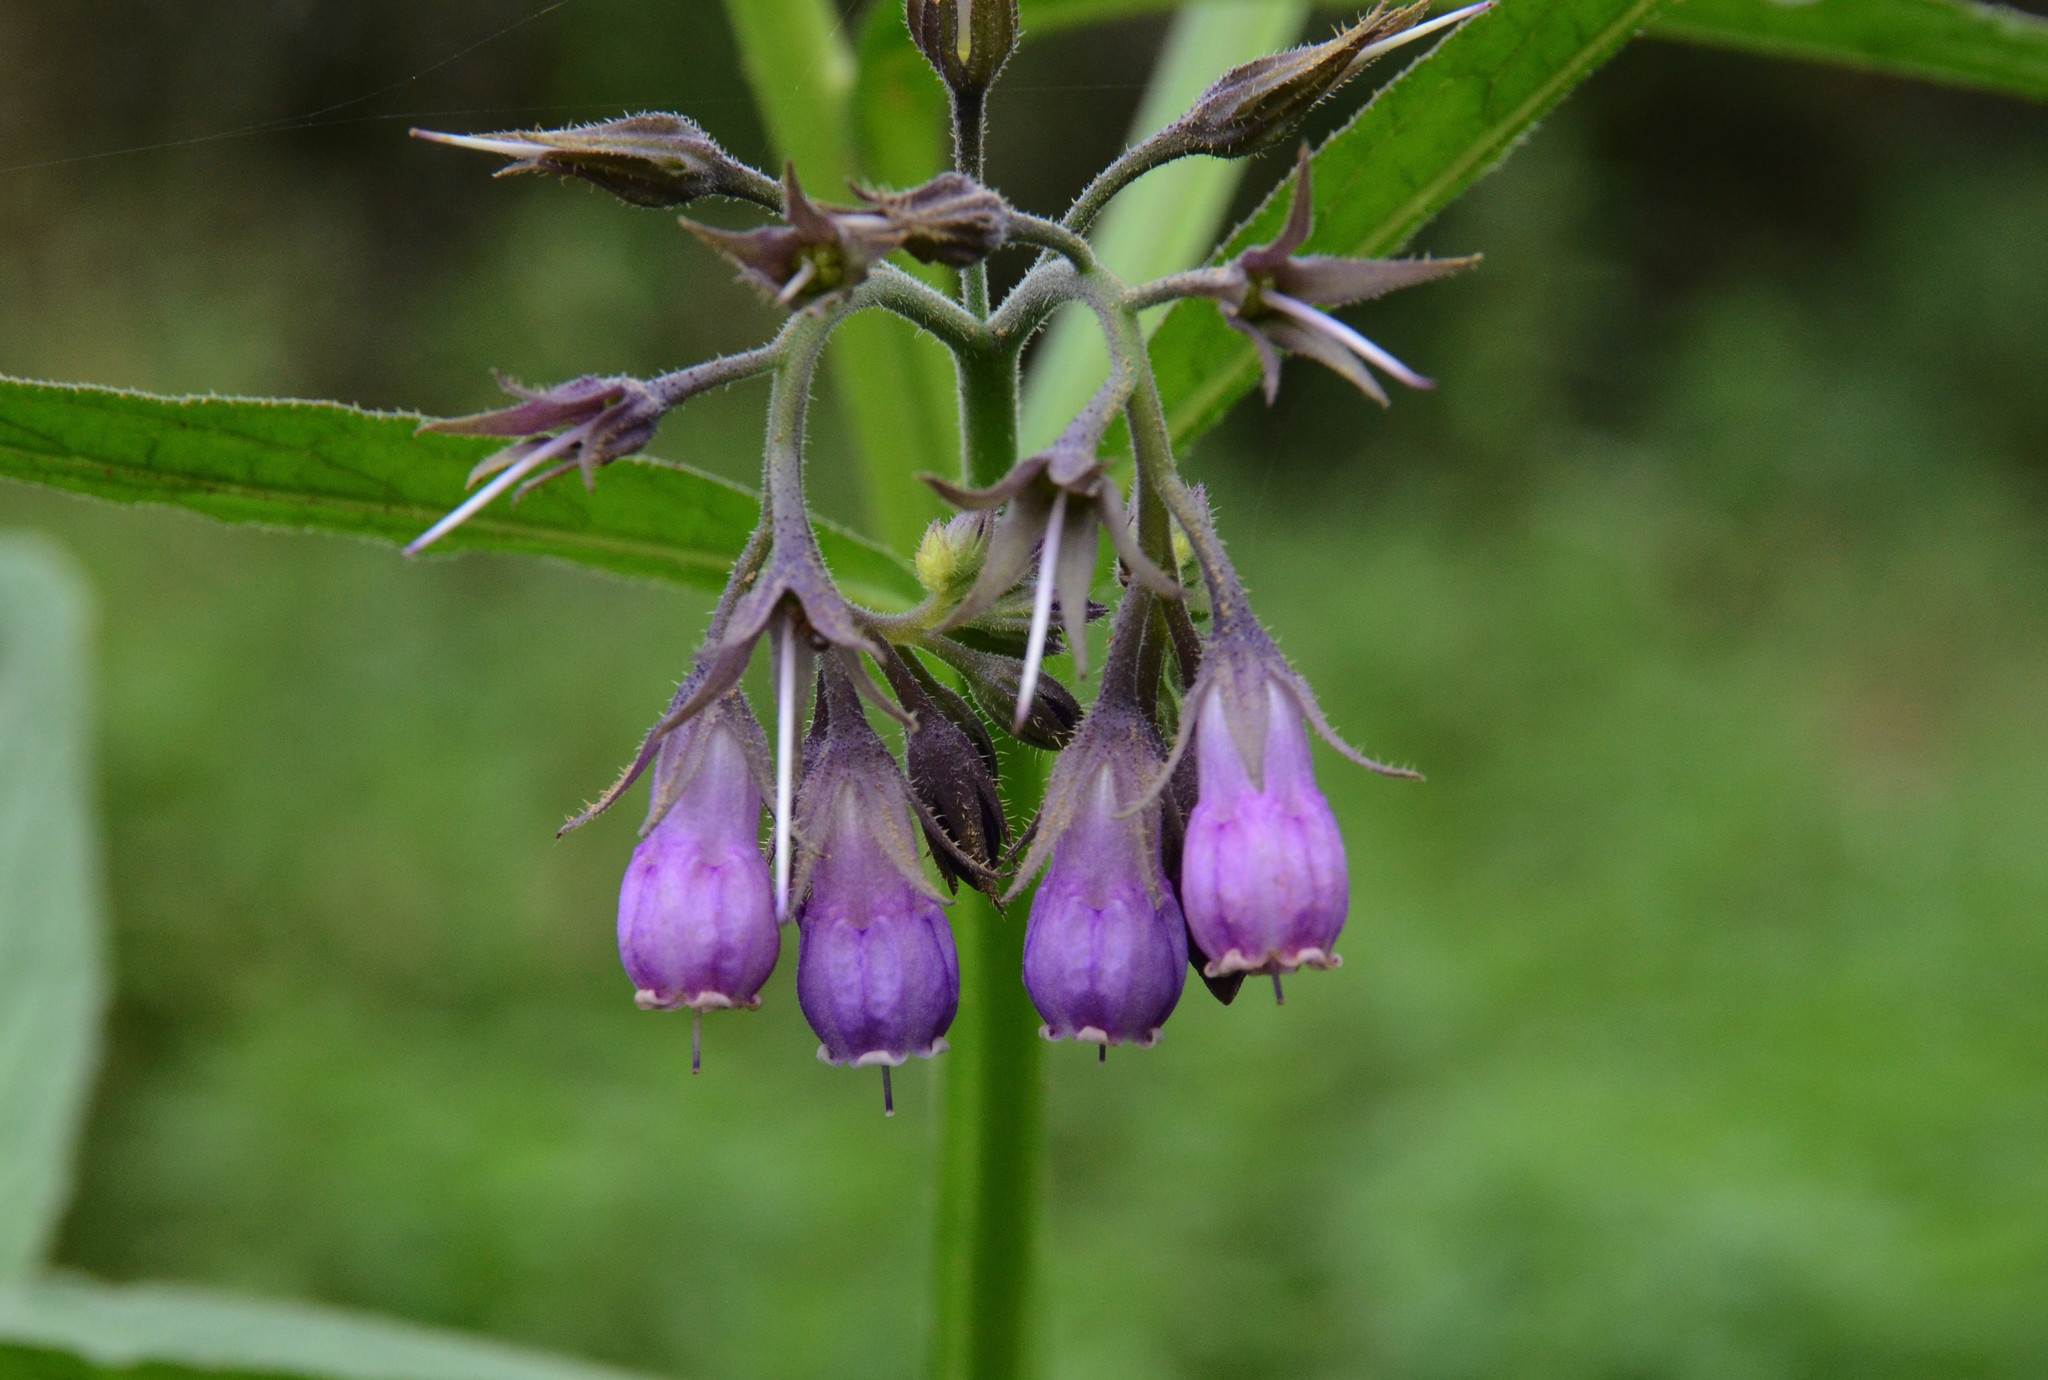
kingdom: Plantae
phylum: Tracheophyta
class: Magnoliopsida
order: Boraginales
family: Boraginaceae
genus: Symphytum
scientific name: Symphytum officinale
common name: Common comfrey
